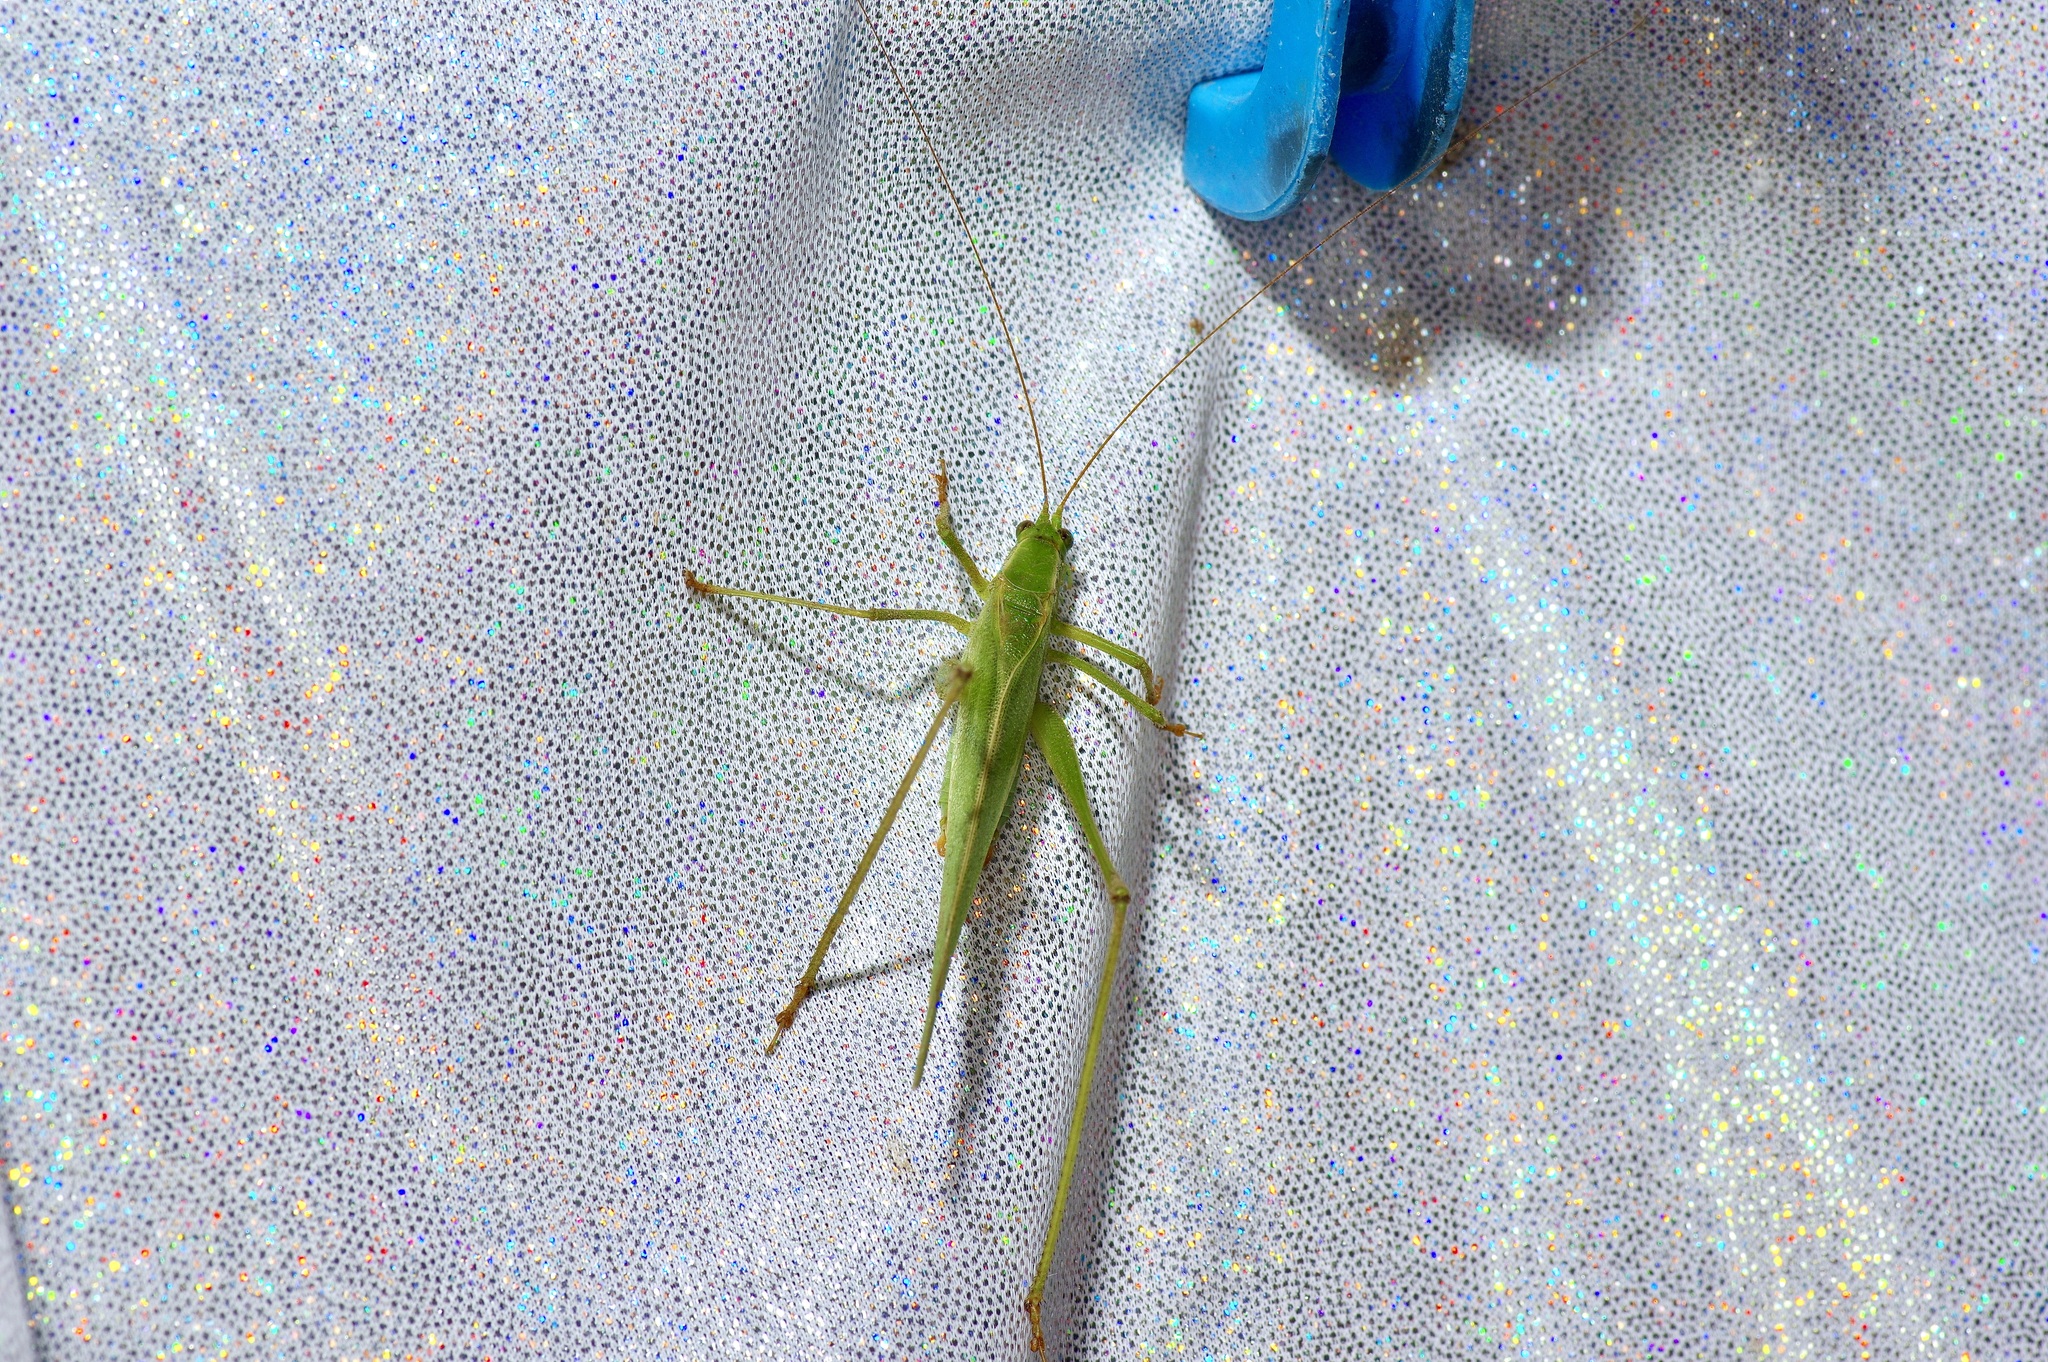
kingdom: Animalia
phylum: Arthropoda
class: Insecta
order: Orthoptera
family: Tettigoniidae
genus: Scudderia
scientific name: Scudderia furcata
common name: Fork-tailed bush katydid
